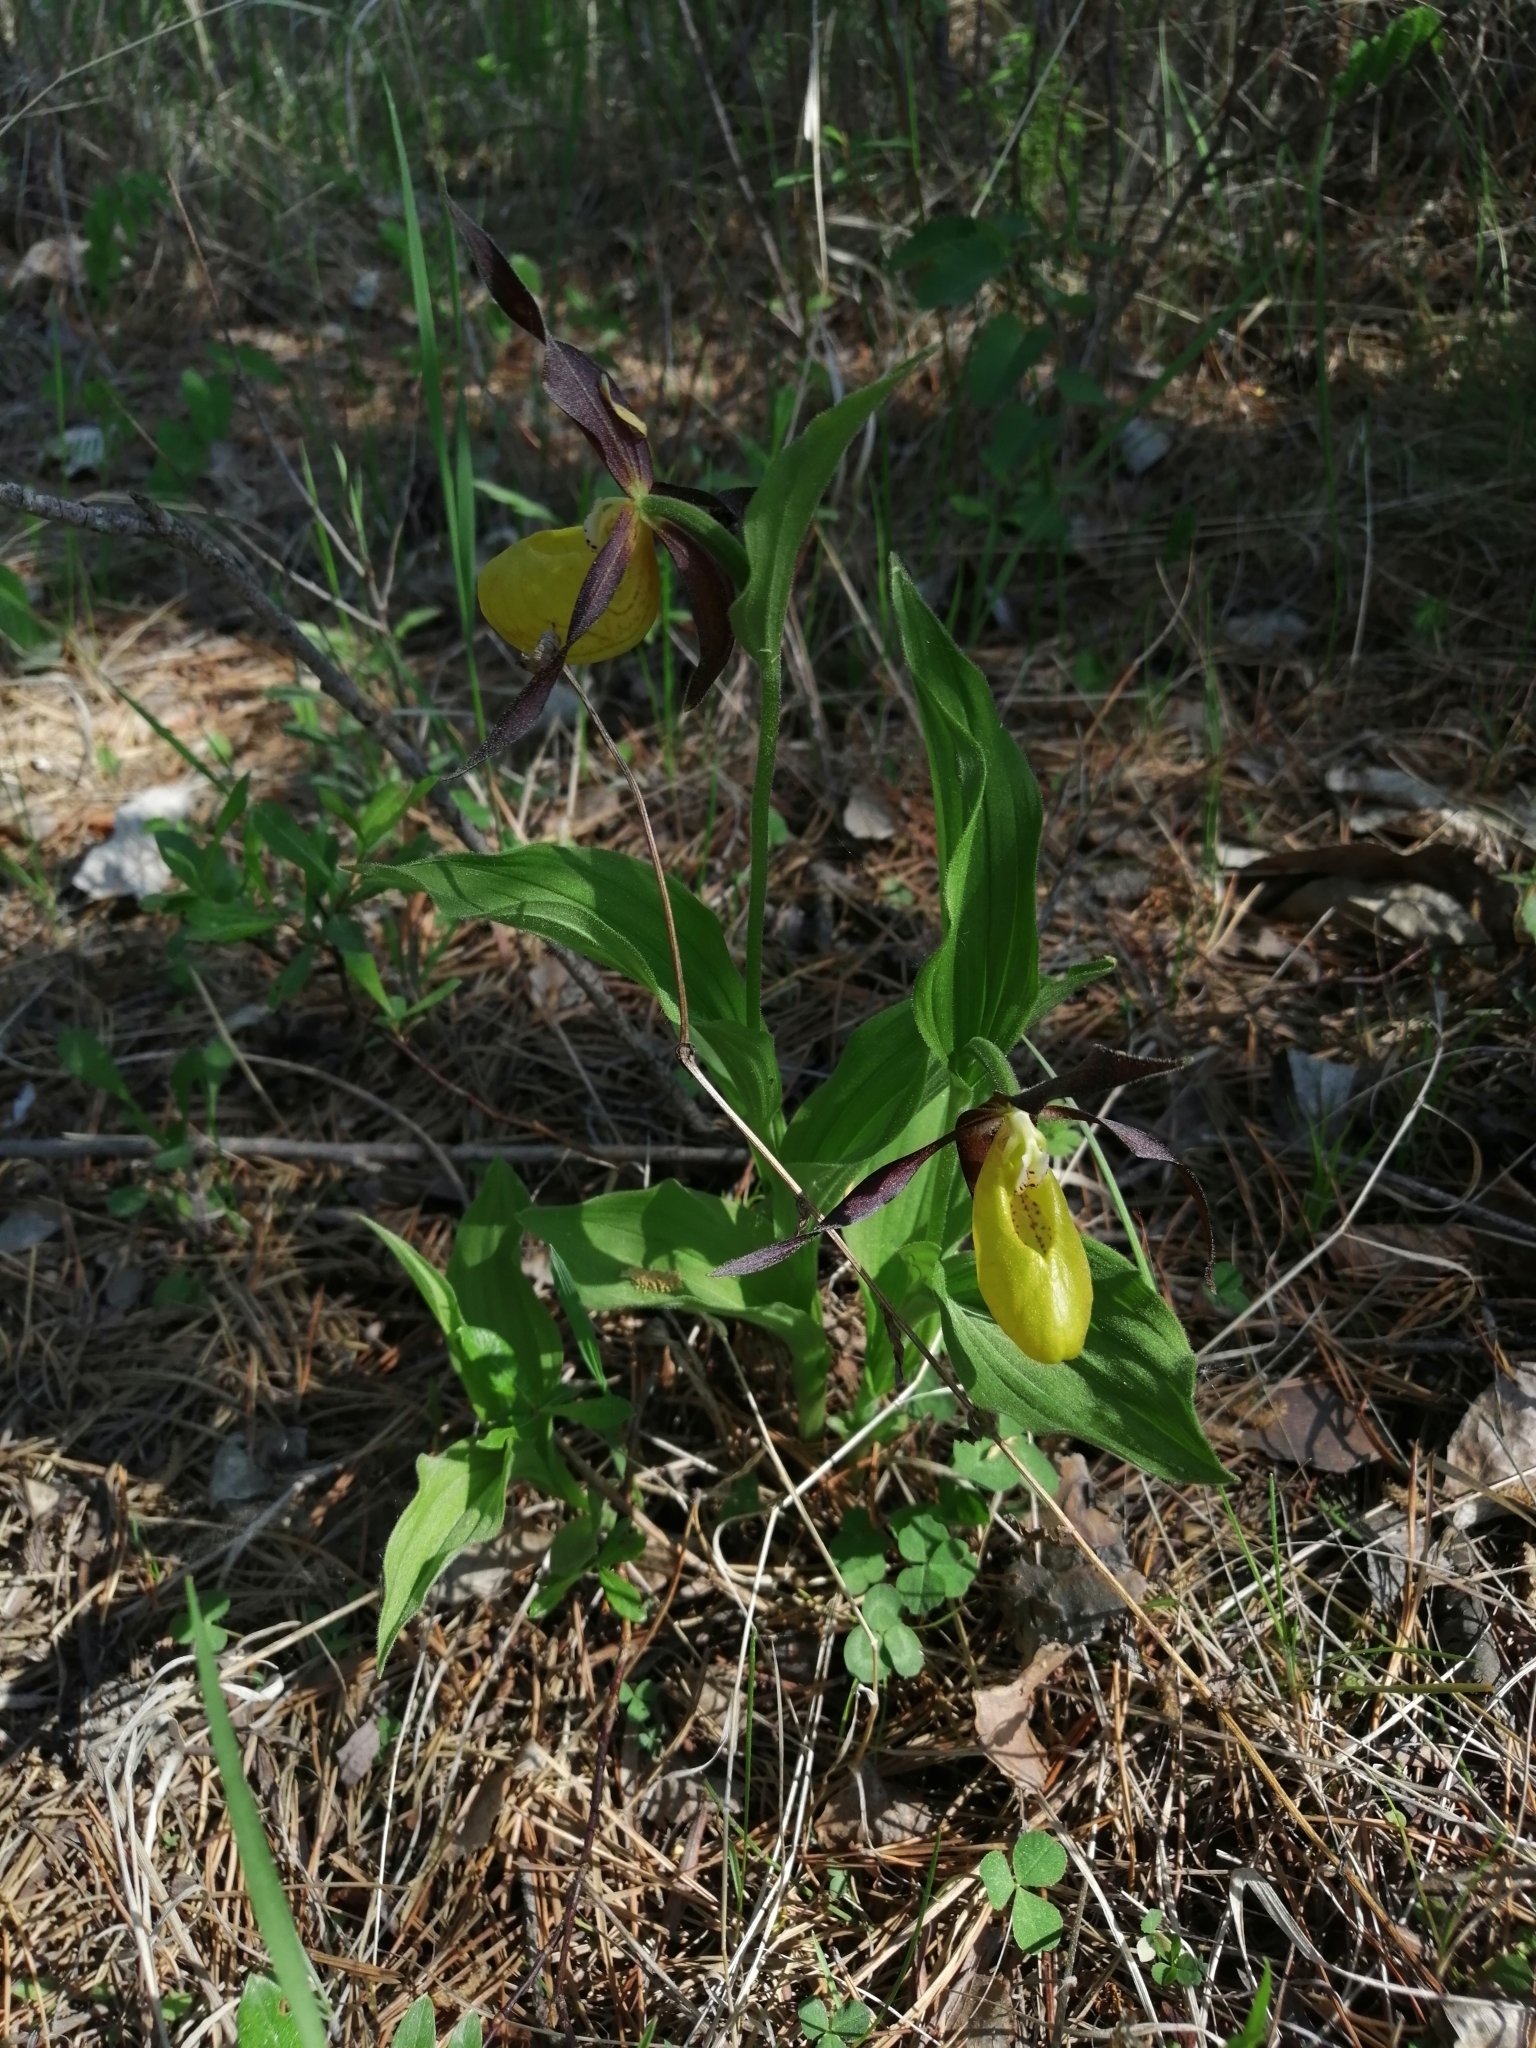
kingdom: Plantae
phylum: Tracheophyta
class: Liliopsida
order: Asparagales
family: Orchidaceae
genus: Cypripedium
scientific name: Cypripedium calceolus
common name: Lady's-slipper
